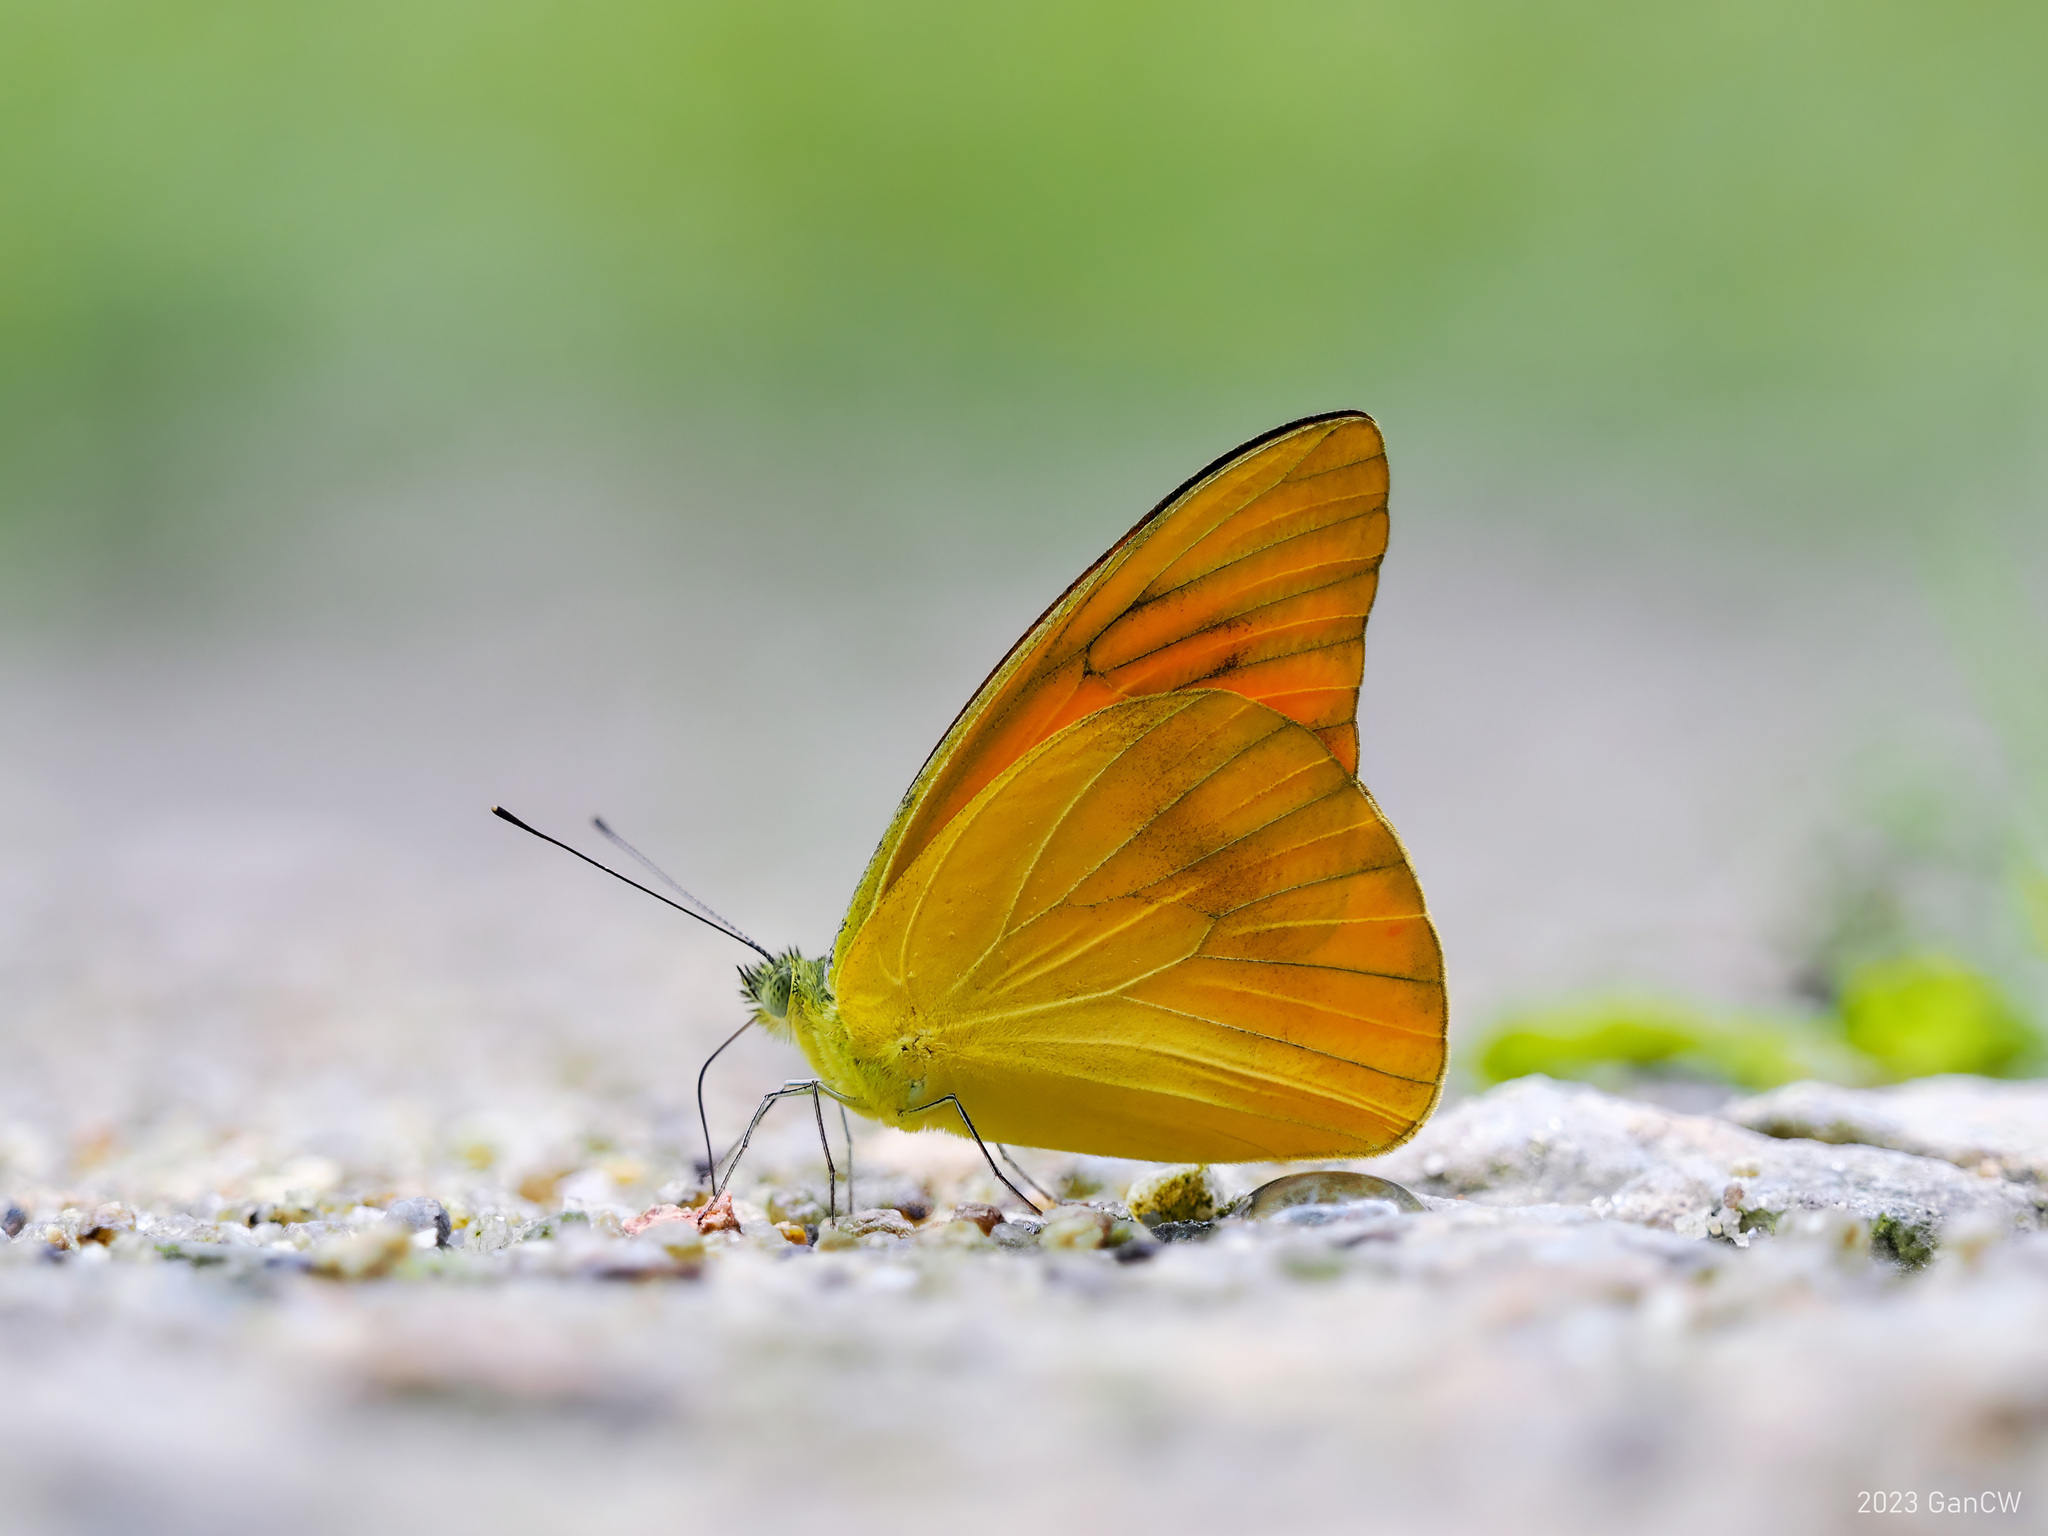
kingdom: Animalia
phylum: Arthropoda
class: Insecta
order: Lepidoptera
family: Pieridae
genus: Appias
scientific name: Appias nero
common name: Orange albatross
